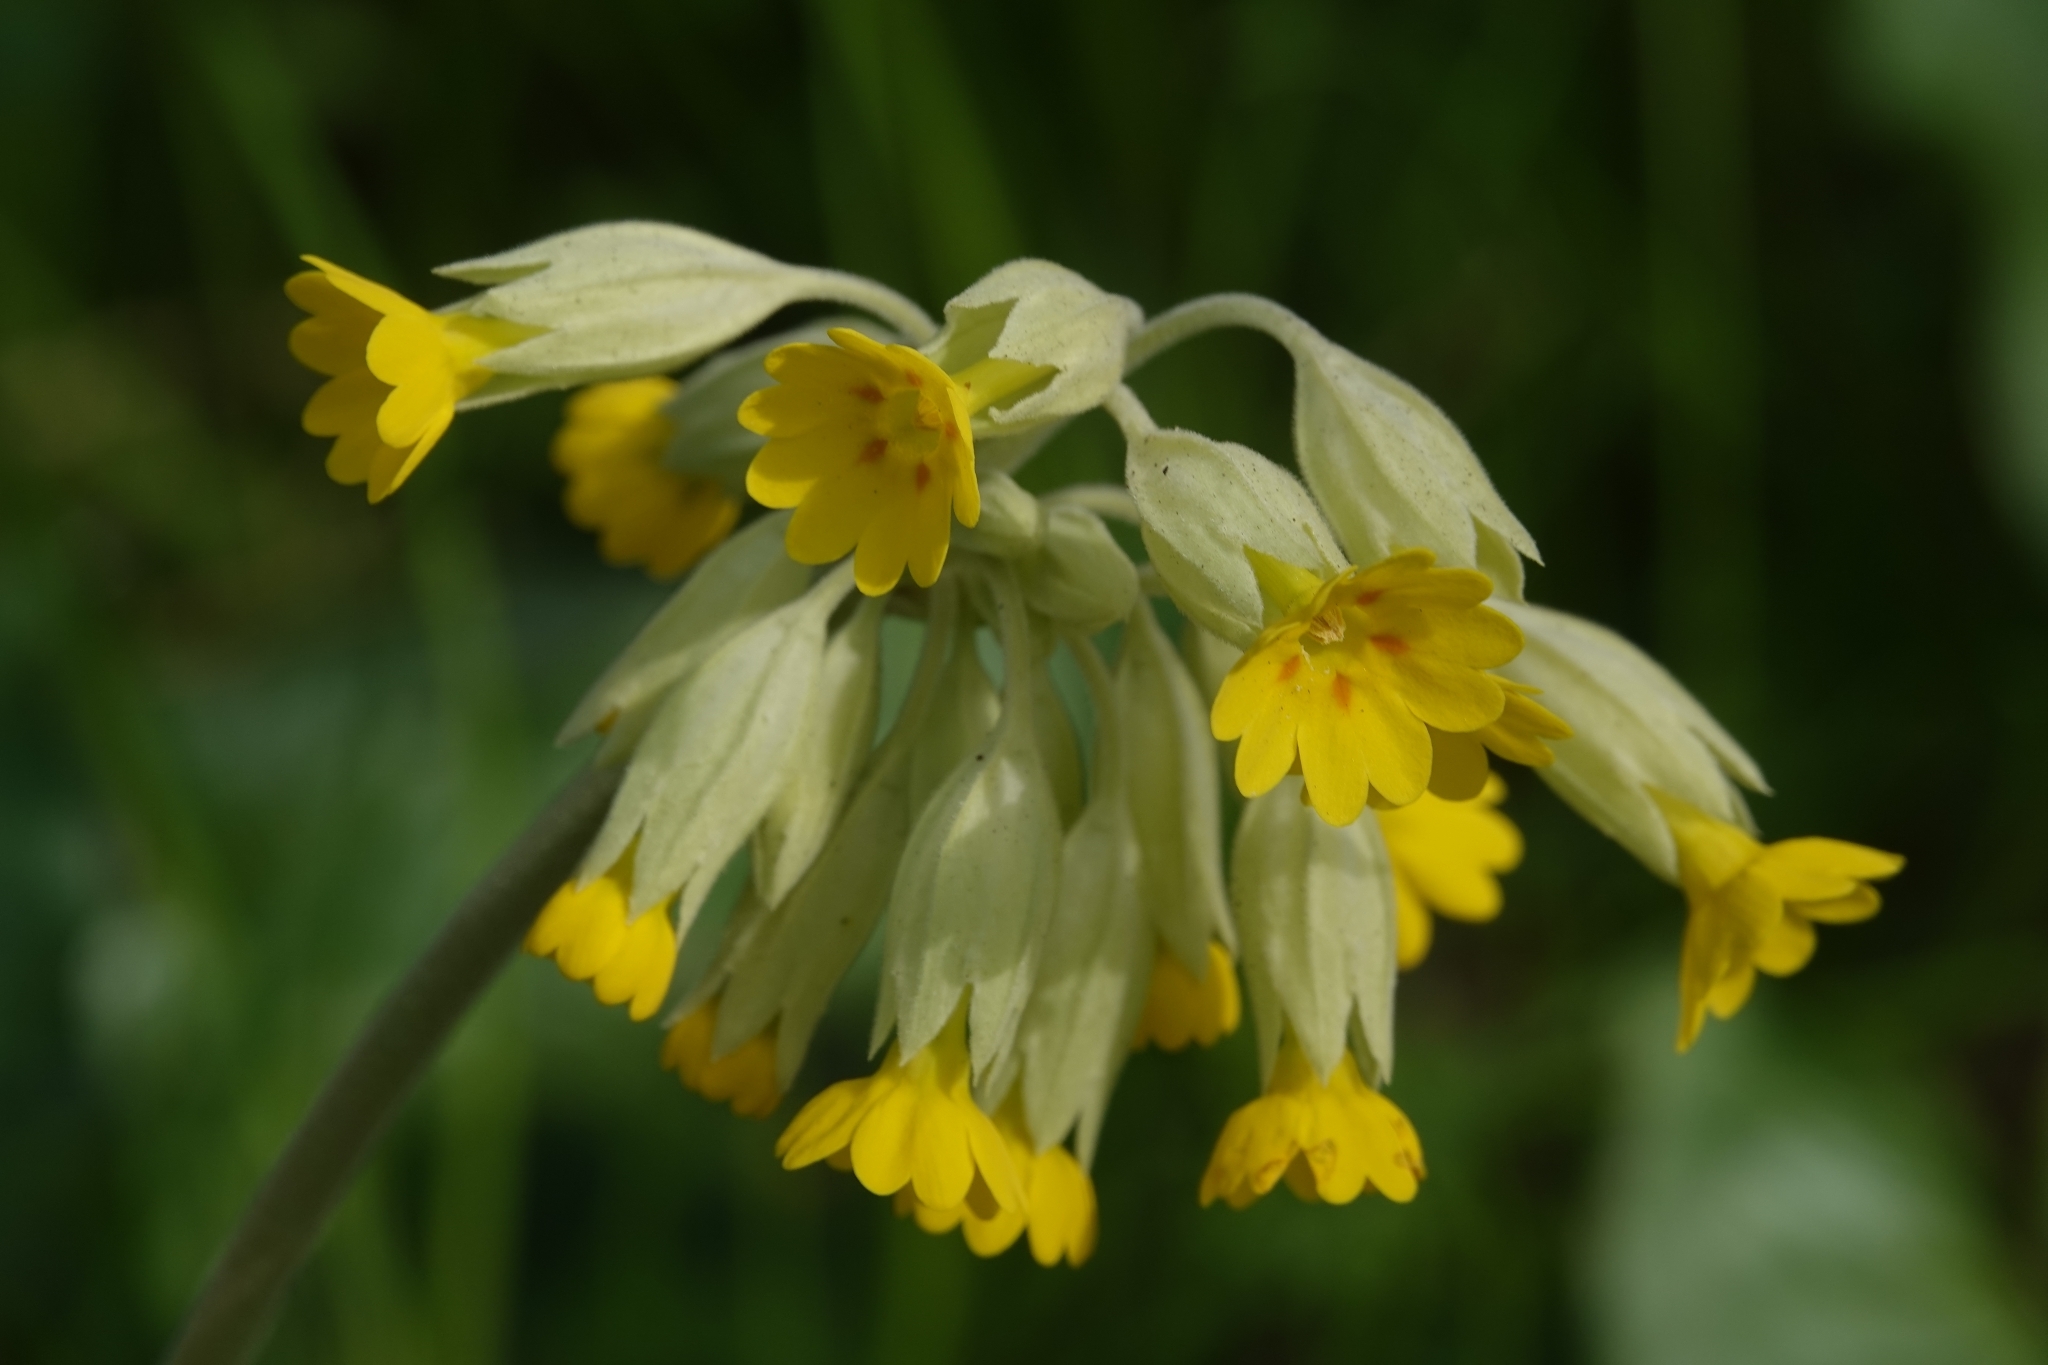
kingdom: Plantae
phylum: Tracheophyta
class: Magnoliopsida
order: Ericales
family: Primulaceae
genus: Primula
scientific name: Primula veris
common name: Cowslip
